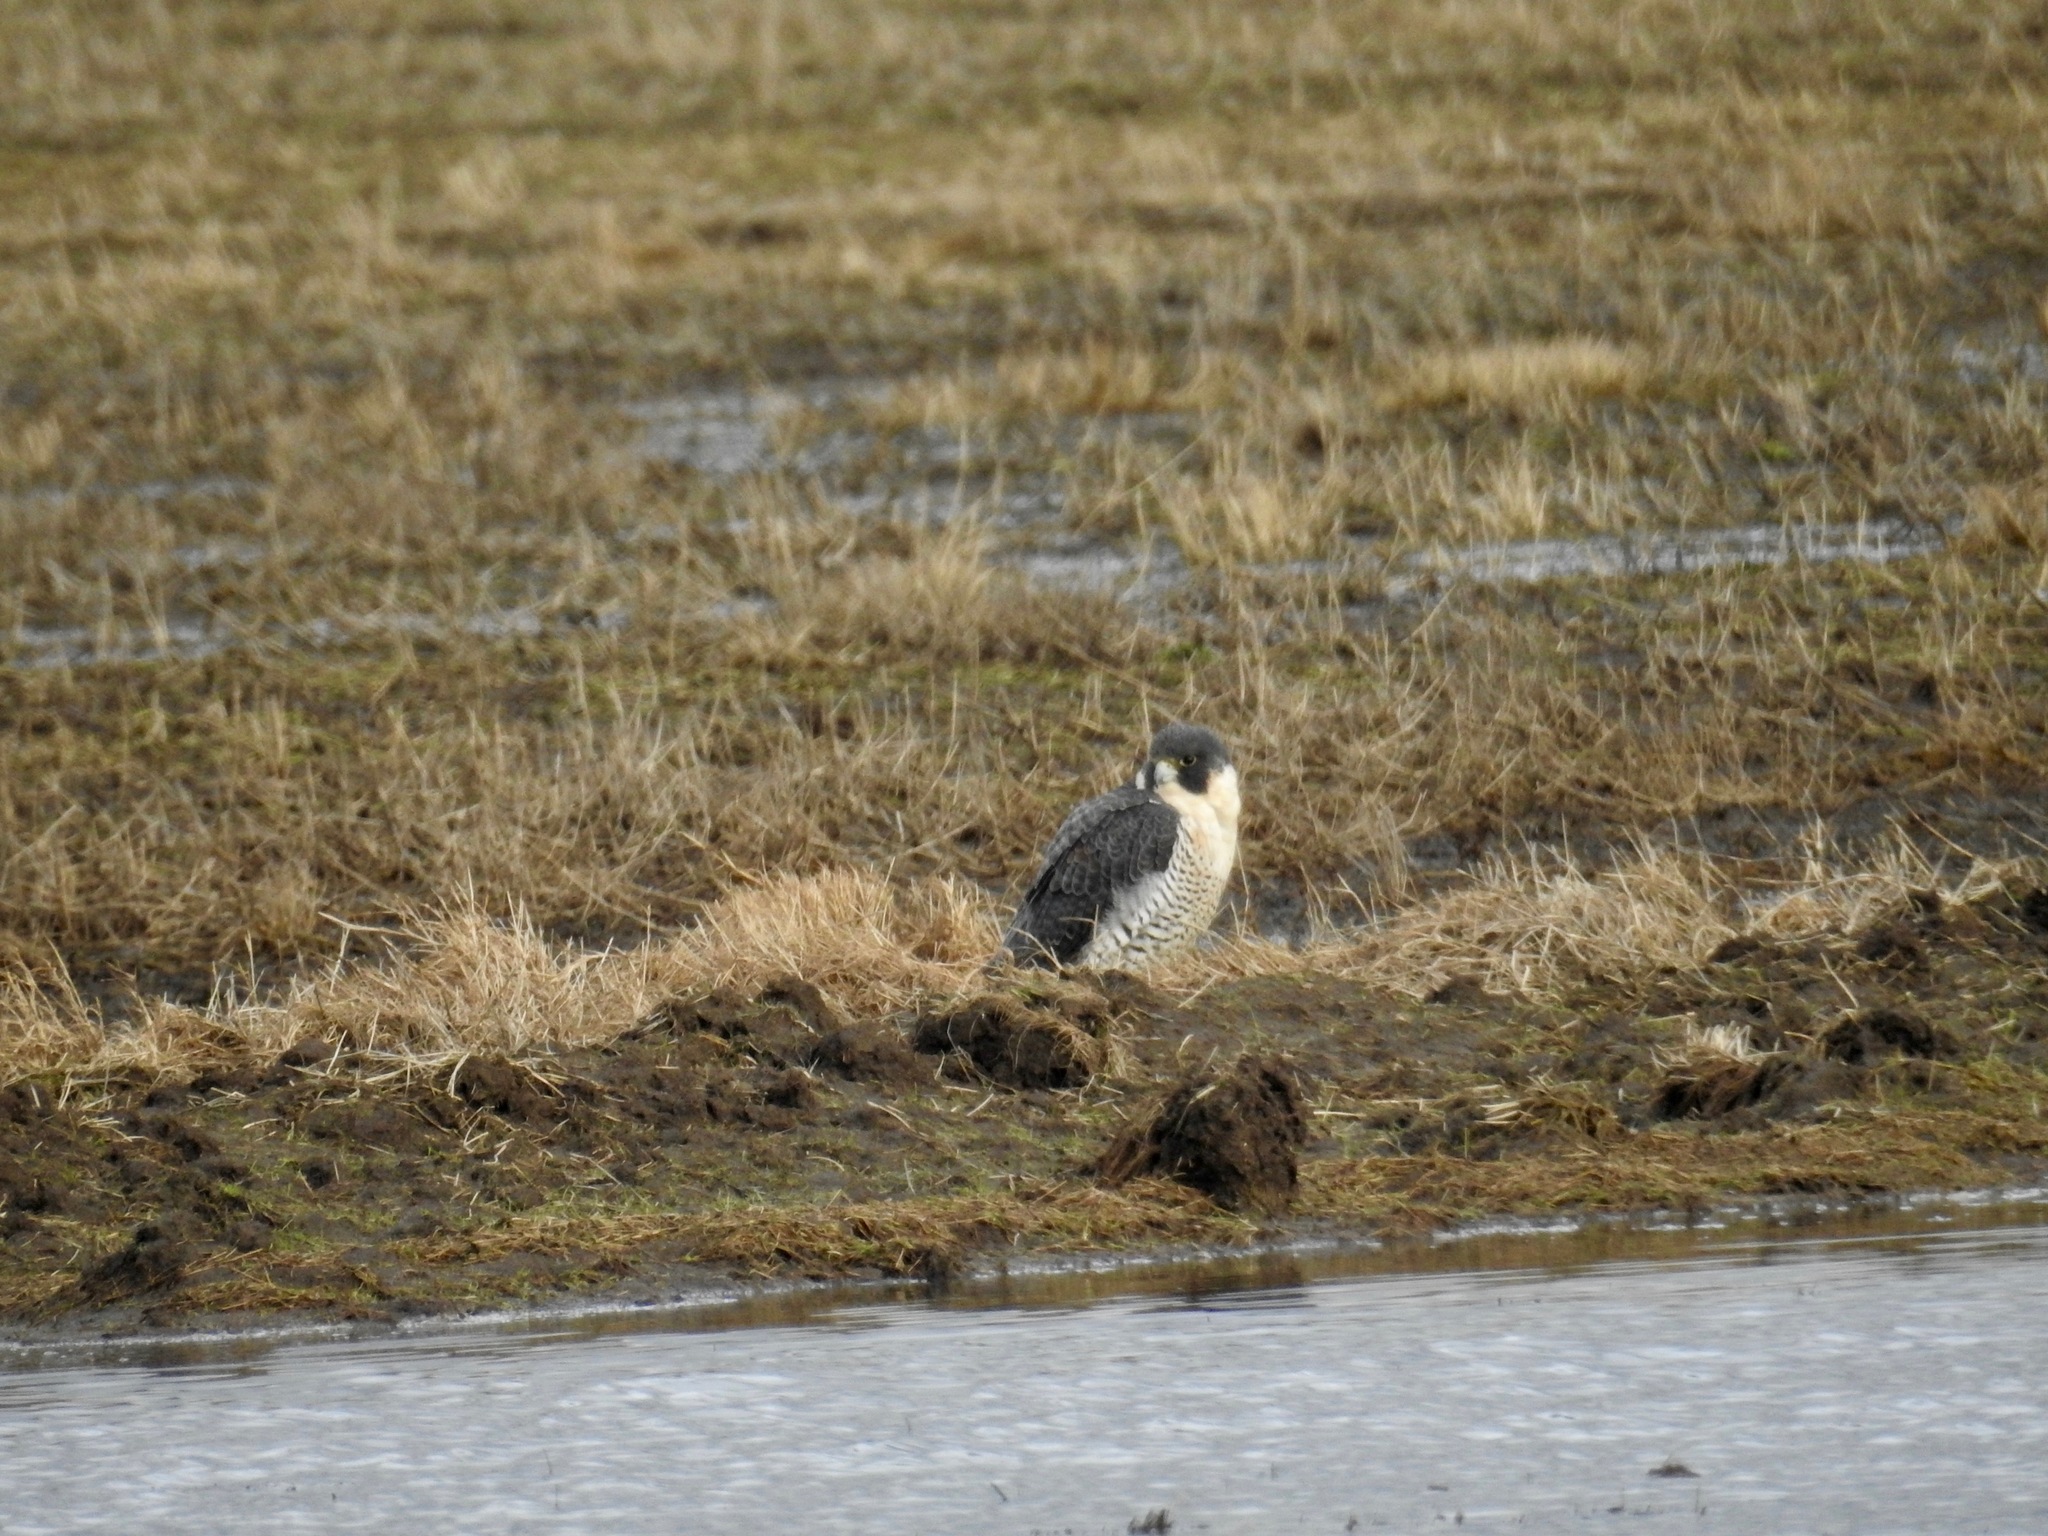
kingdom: Animalia
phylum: Chordata
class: Aves
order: Falconiformes
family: Falconidae
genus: Falco
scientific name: Falco peregrinus
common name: Peregrine falcon
